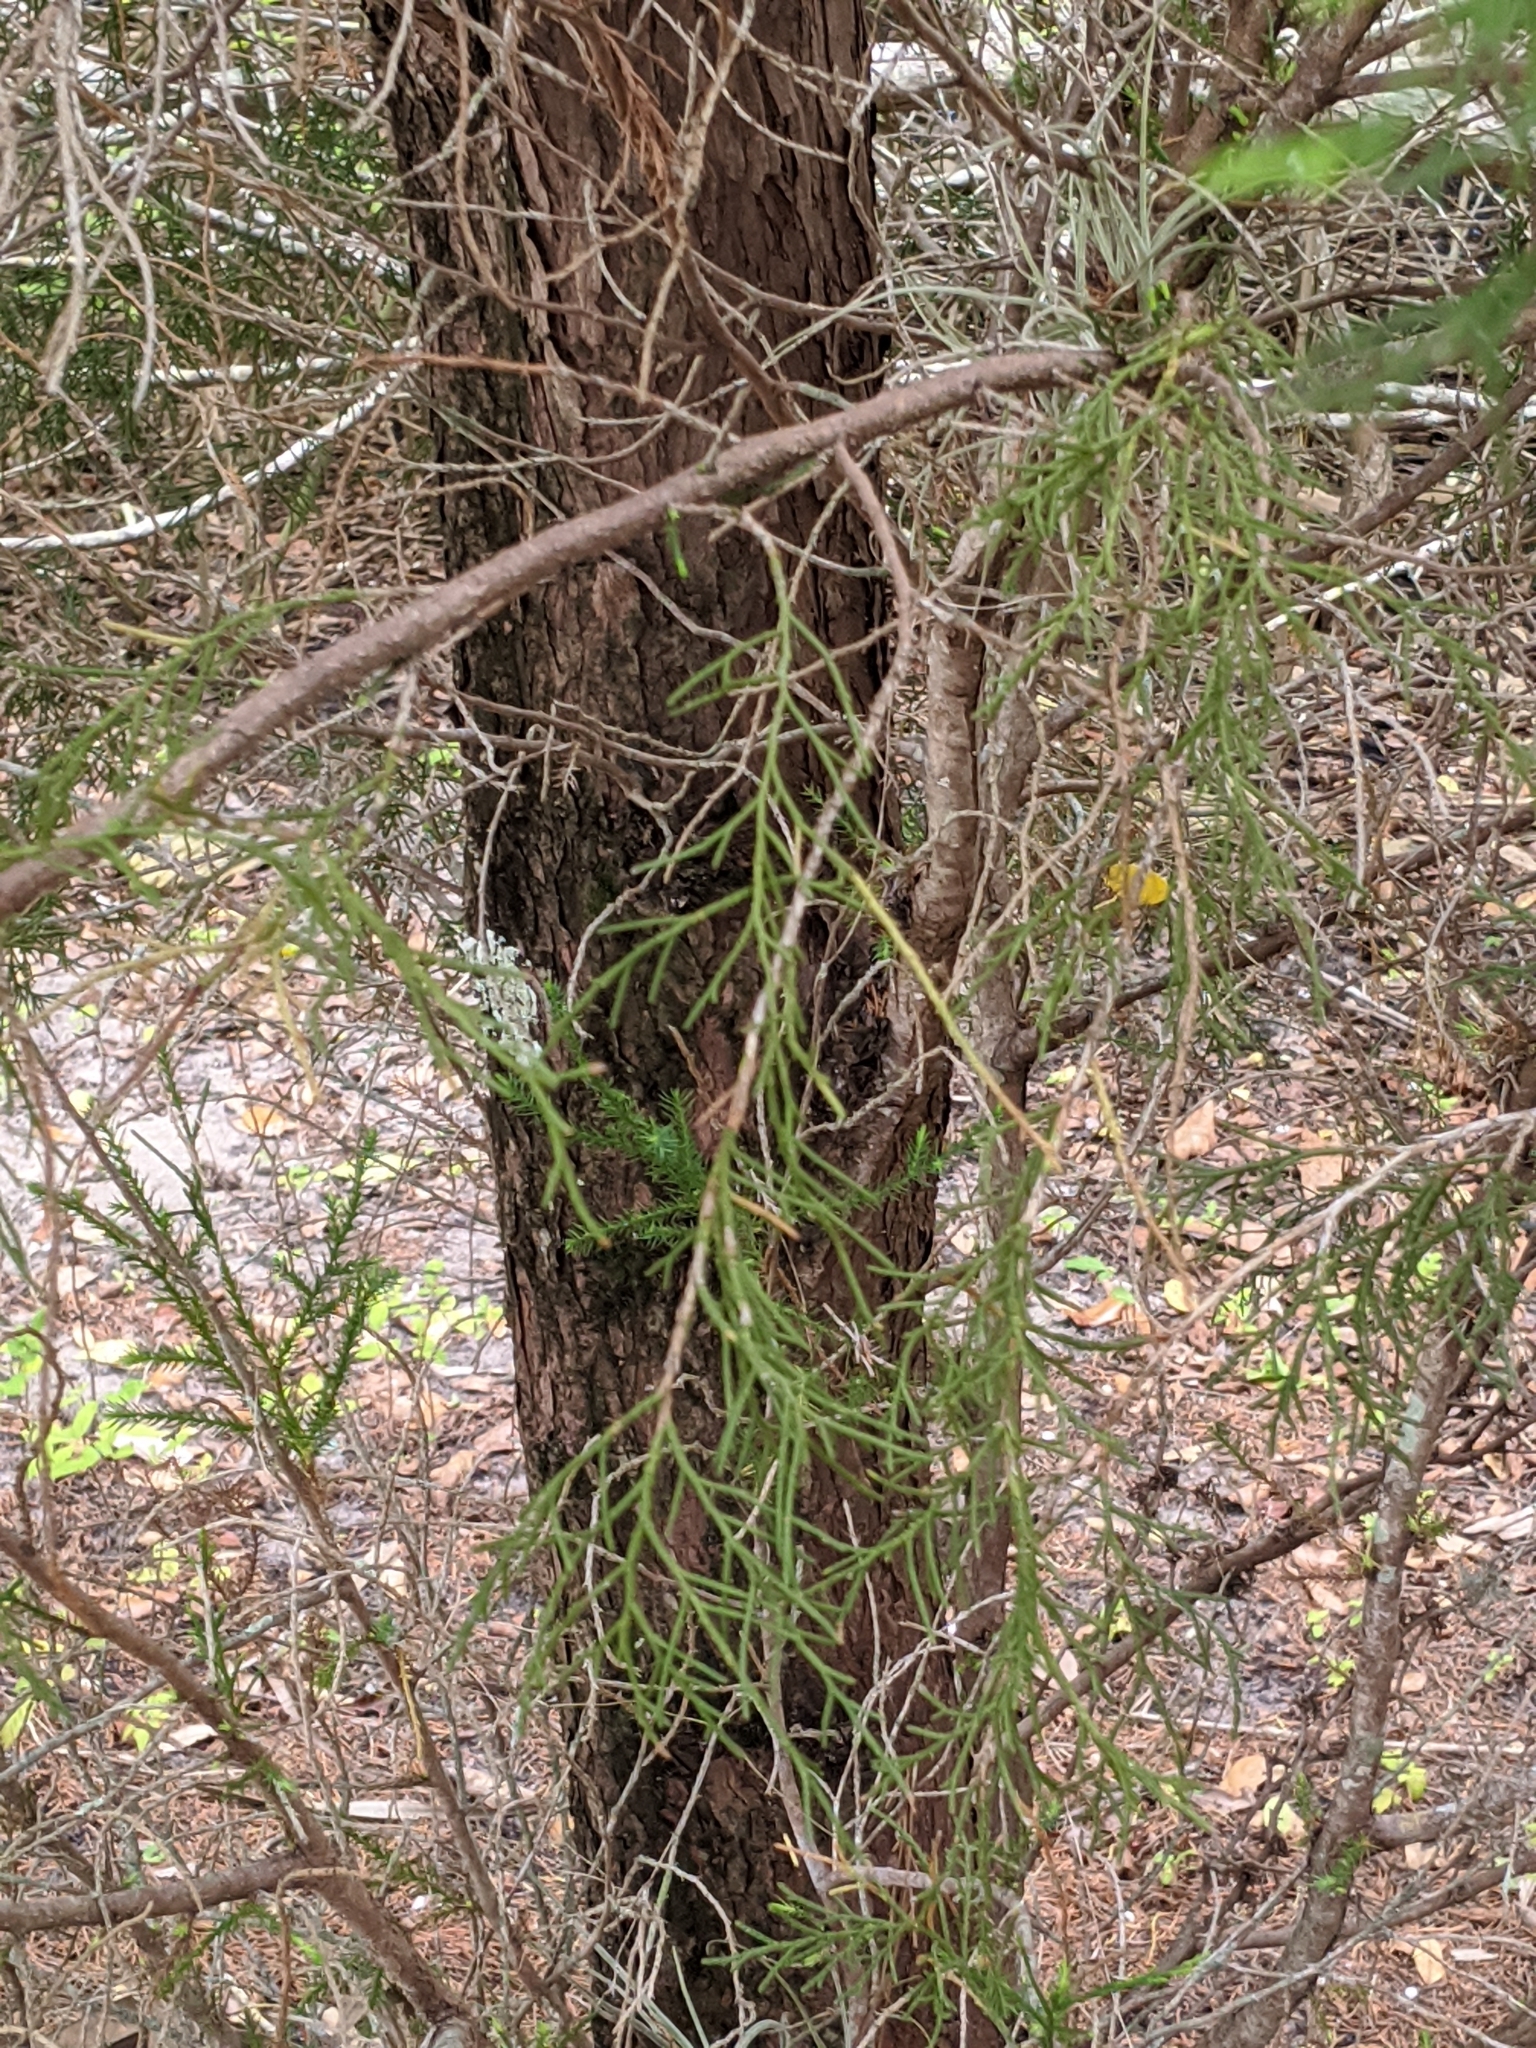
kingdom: Plantae
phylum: Tracheophyta
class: Pinopsida
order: Pinales
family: Cupressaceae
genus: Juniperus
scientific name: Juniperus virginiana
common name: Red juniper
